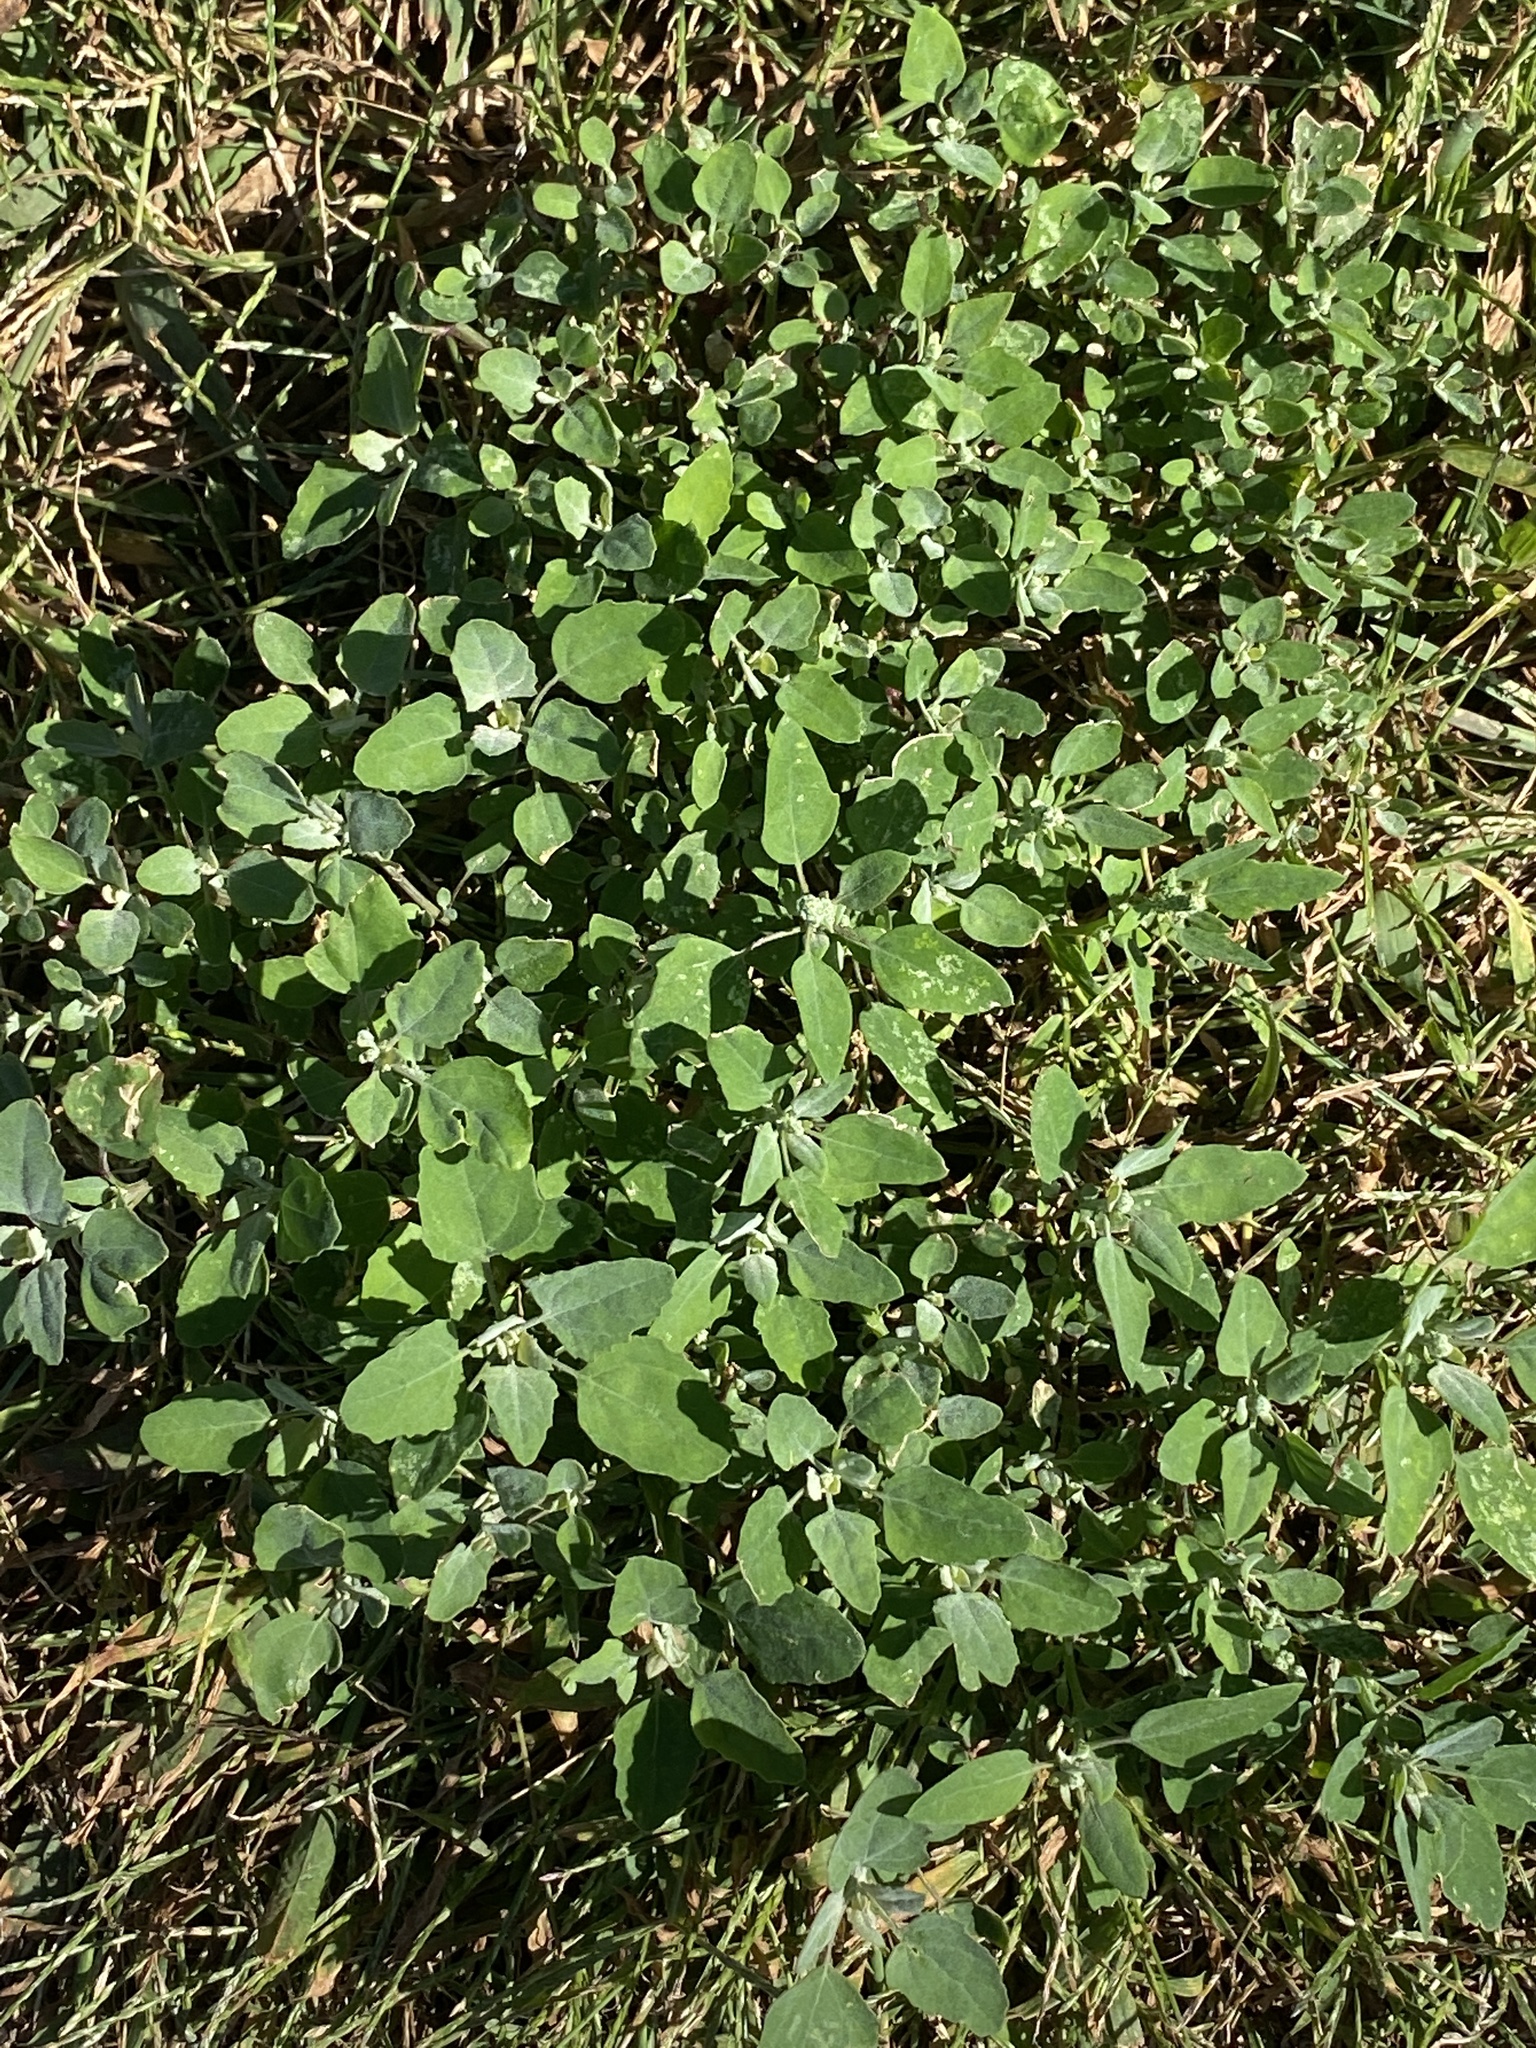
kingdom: Plantae
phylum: Tracheophyta
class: Magnoliopsida
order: Caryophyllales
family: Amaranthaceae
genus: Chenopodium
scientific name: Chenopodium album
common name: Fat-hen
